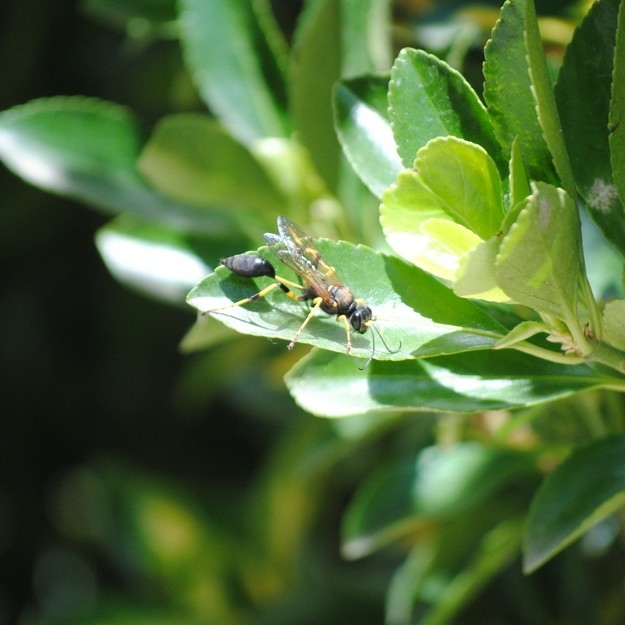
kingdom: Animalia
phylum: Arthropoda
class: Insecta
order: Hymenoptera
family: Sphecidae
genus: Sceliphron
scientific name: Sceliphron destillatorium
